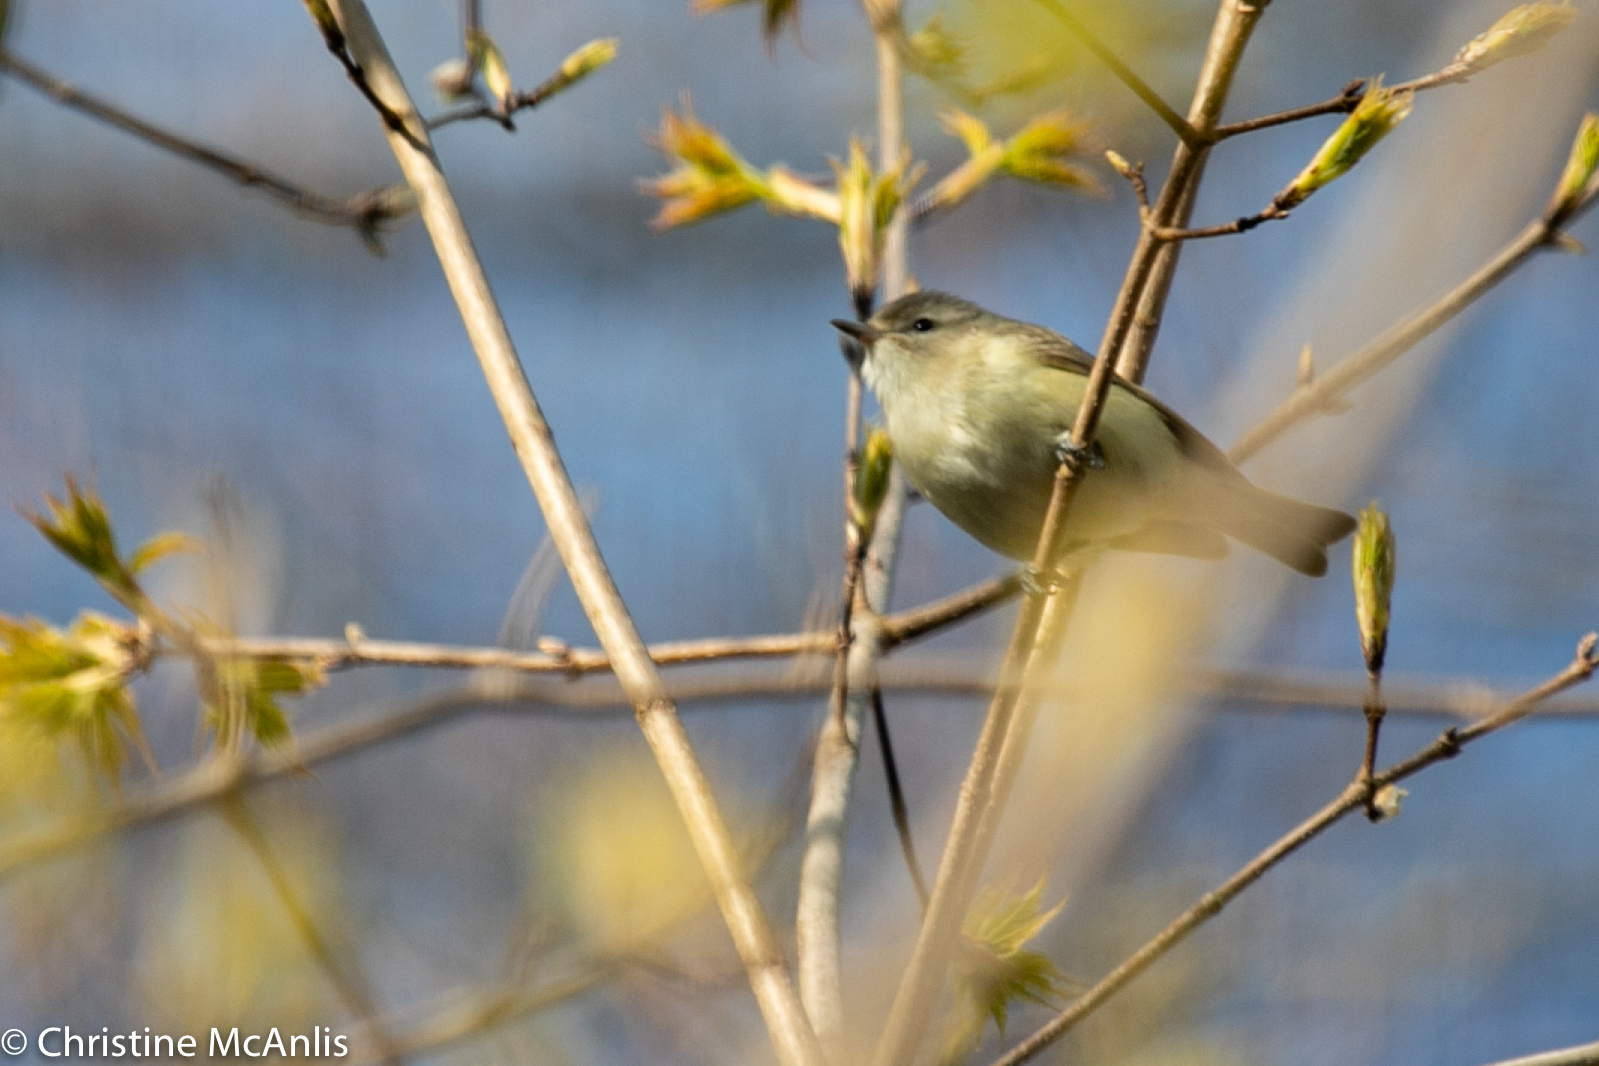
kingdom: Animalia
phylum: Chordata
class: Aves
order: Passeriformes
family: Vireonidae
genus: Vireo
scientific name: Vireo gilvus
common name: Warbling vireo
